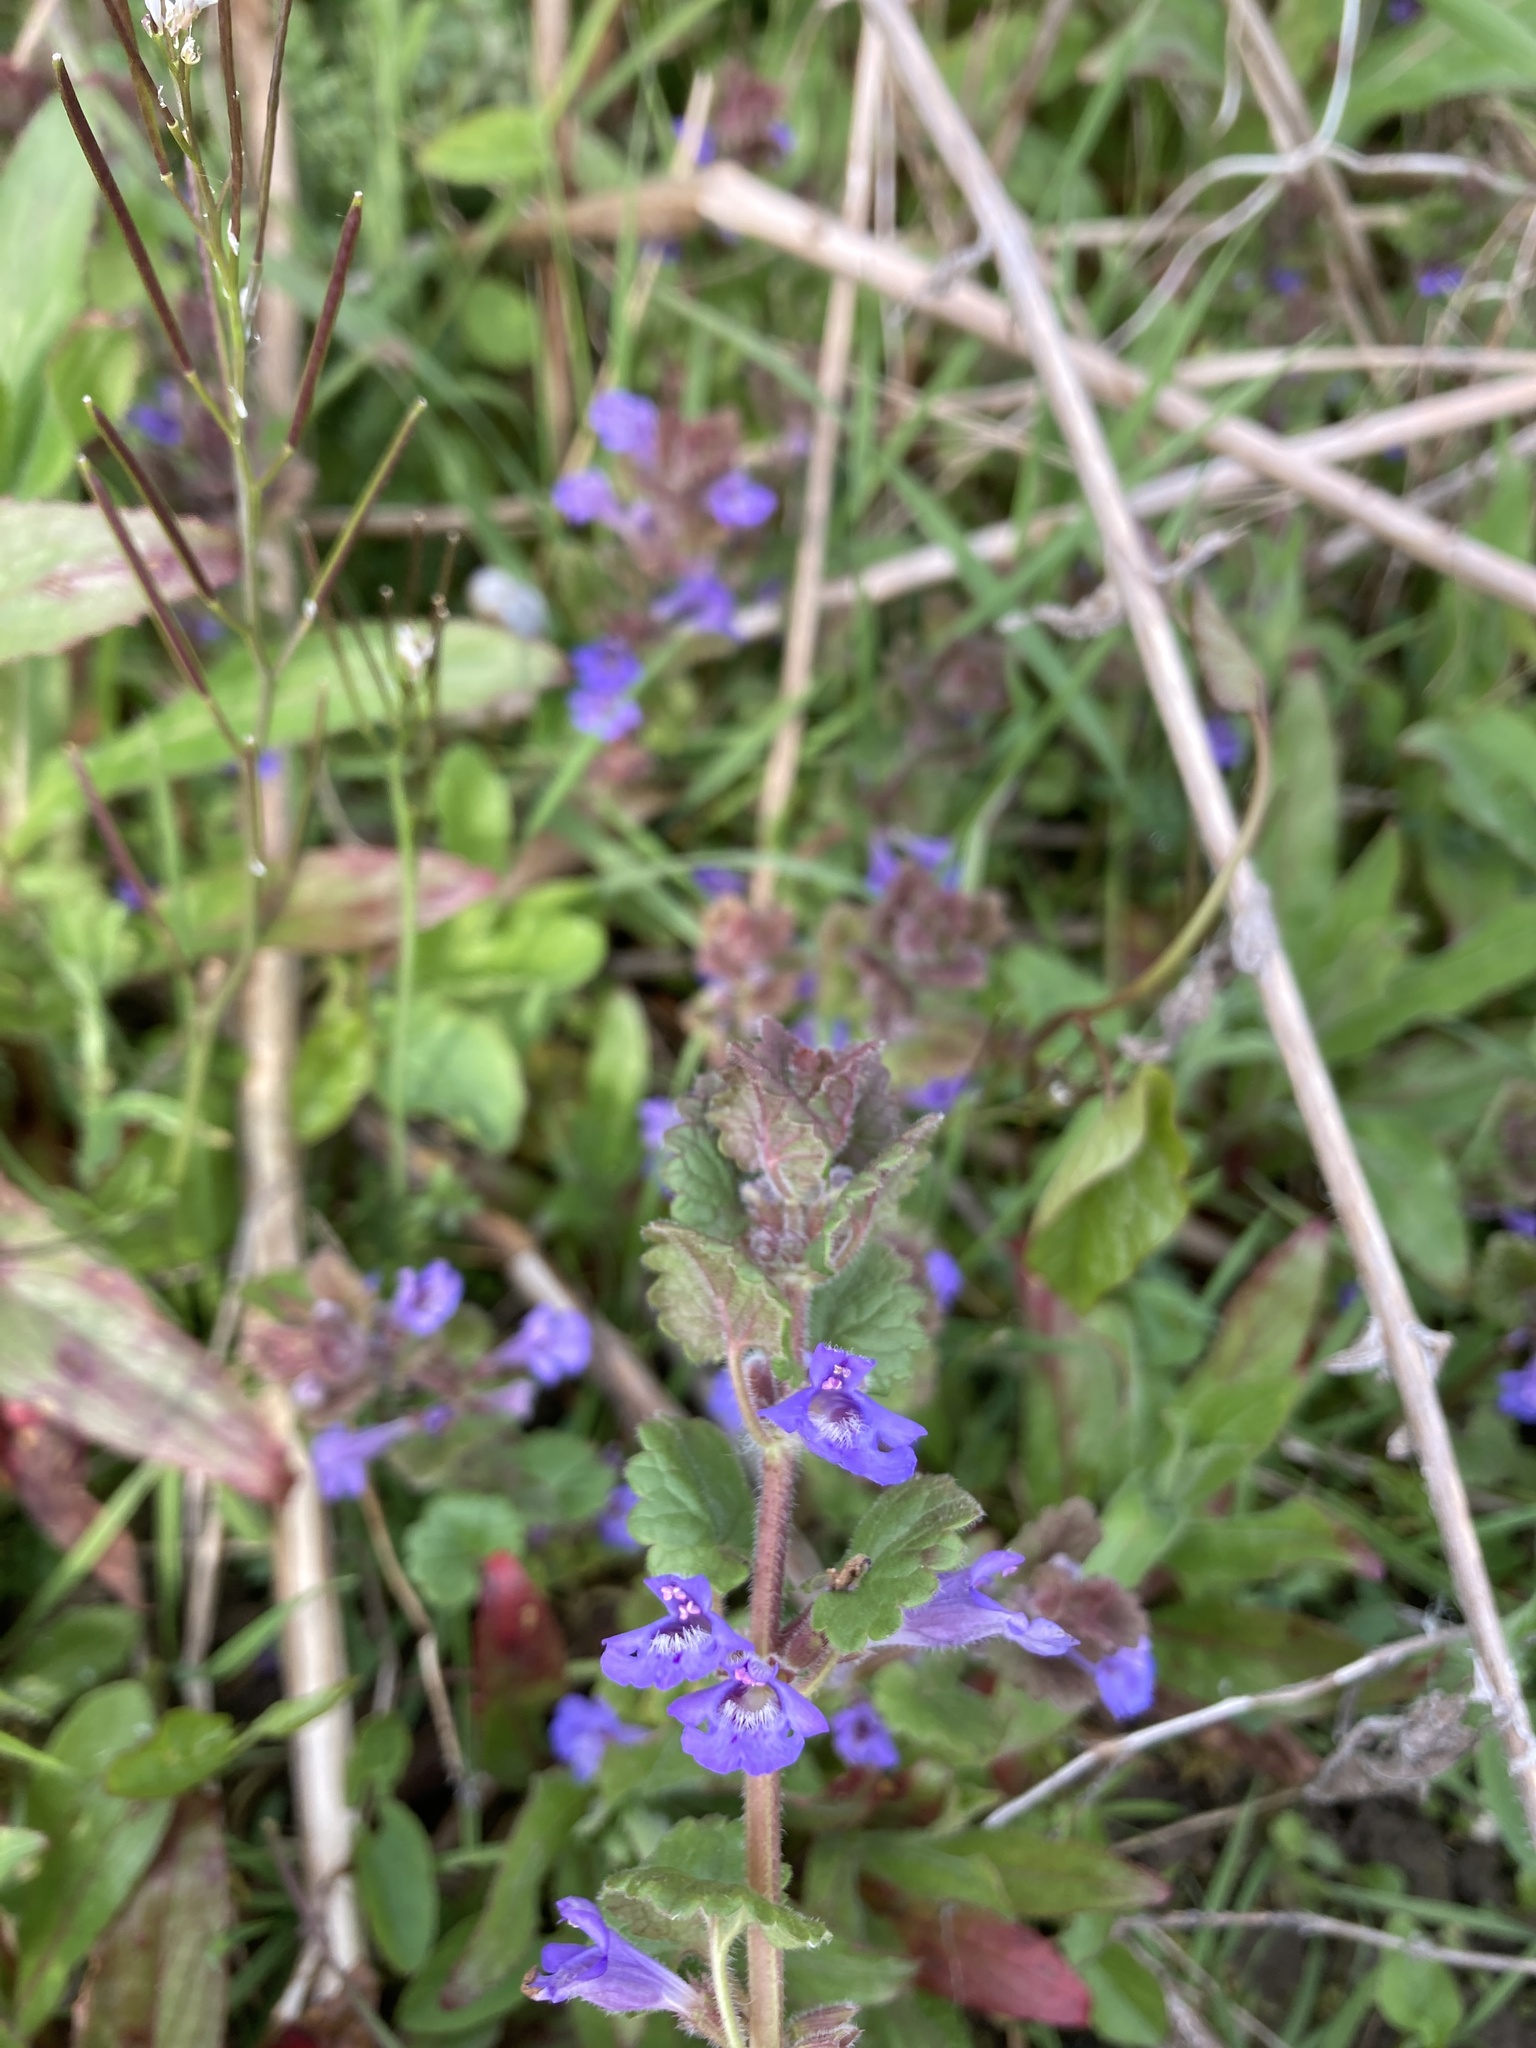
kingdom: Plantae
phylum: Tracheophyta
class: Magnoliopsida
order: Lamiales
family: Lamiaceae
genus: Glechoma
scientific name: Glechoma hederacea
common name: Ground ivy
